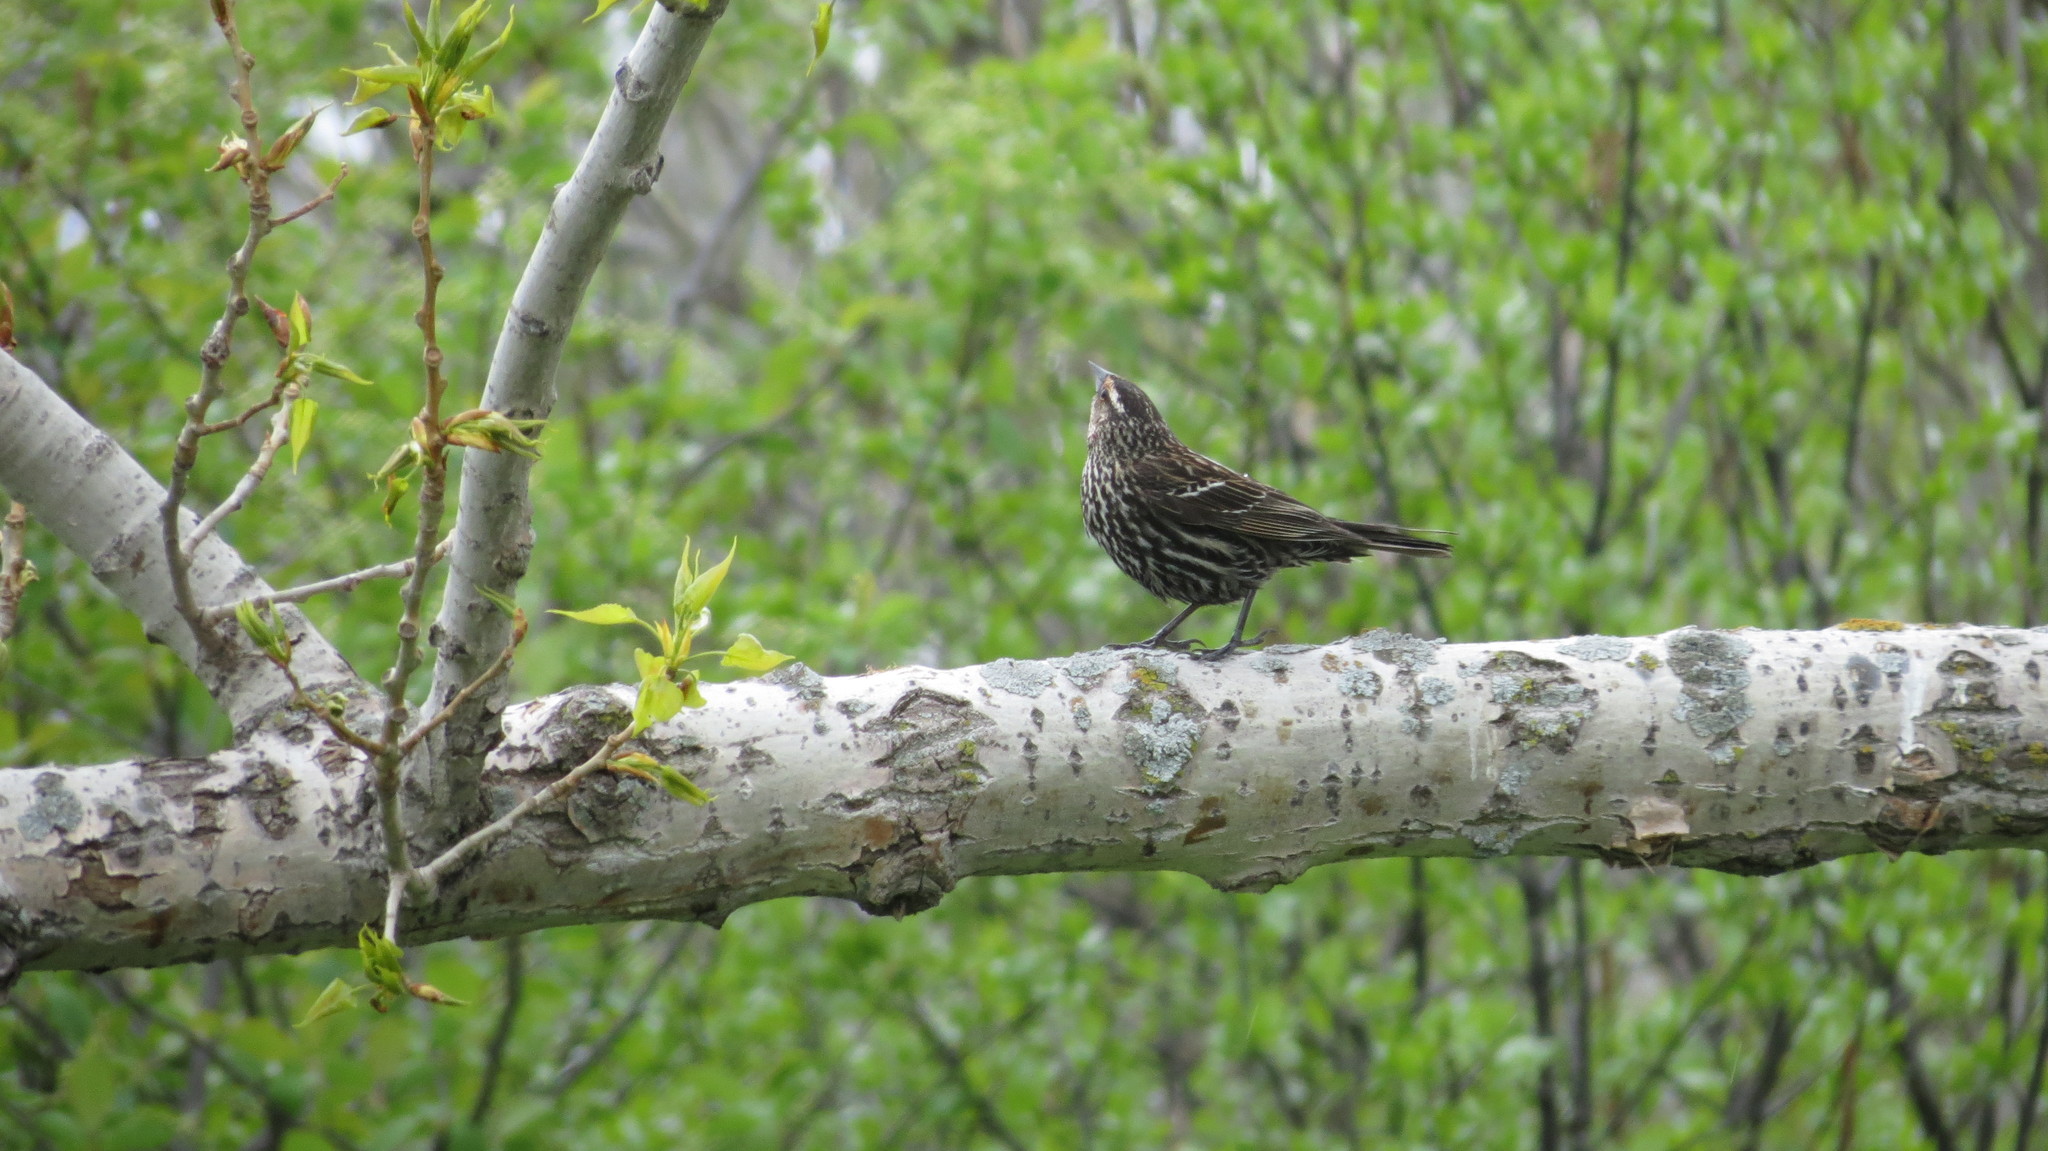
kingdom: Animalia
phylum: Chordata
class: Aves
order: Passeriformes
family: Icteridae
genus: Agelaius
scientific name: Agelaius phoeniceus
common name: Red-winged blackbird
